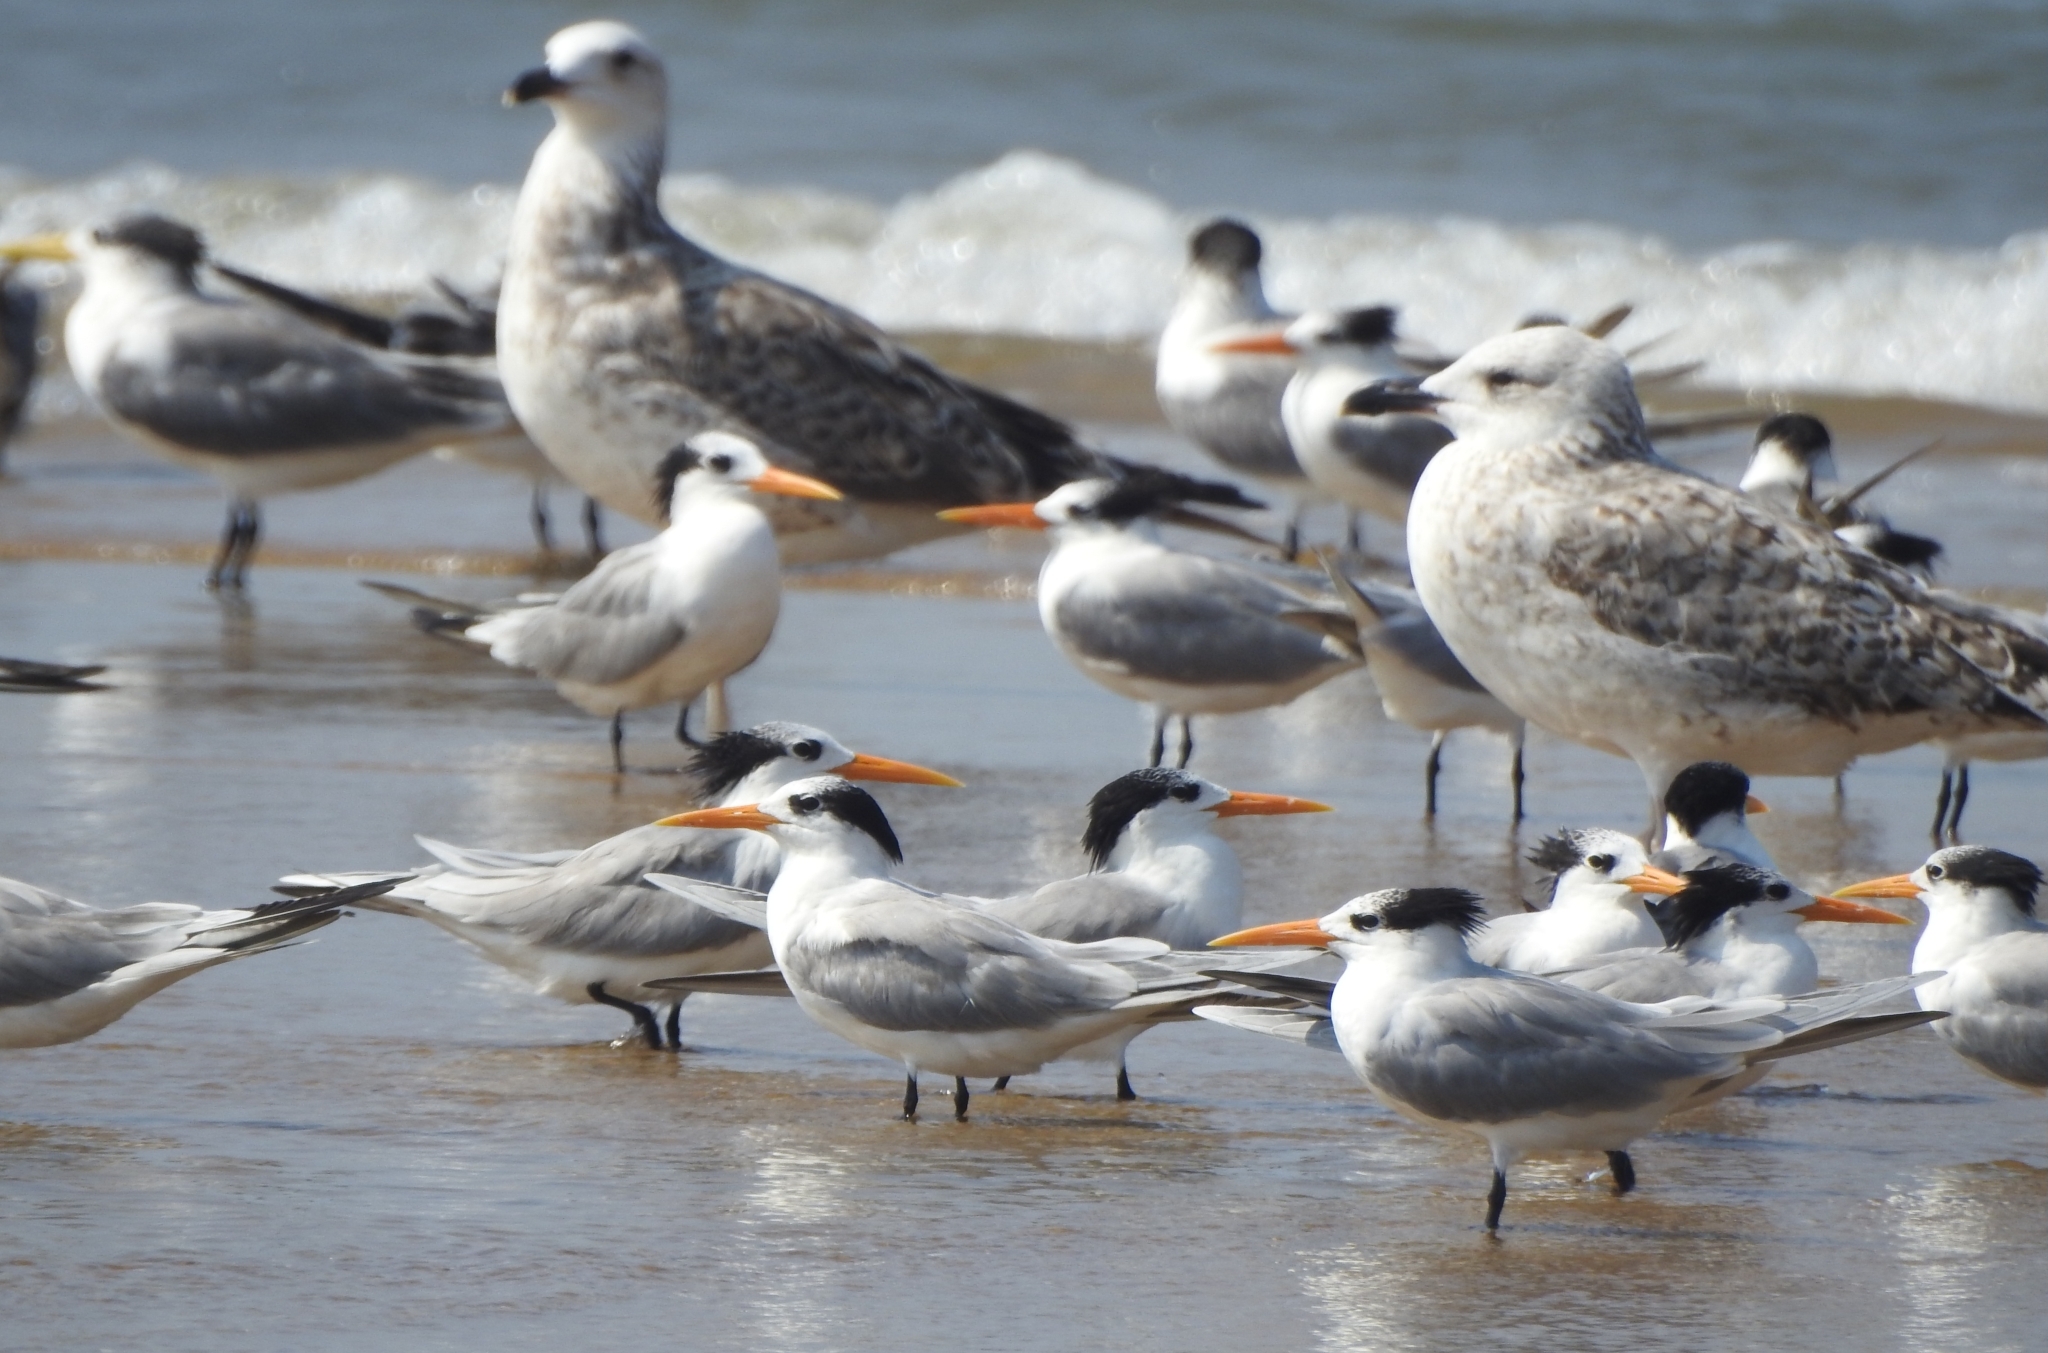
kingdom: Animalia
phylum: Chordata
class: Aves
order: Charadriiformes
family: Laridae
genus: Thalasseus
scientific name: Thalasseus bengalensis
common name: Lesser crested tern
